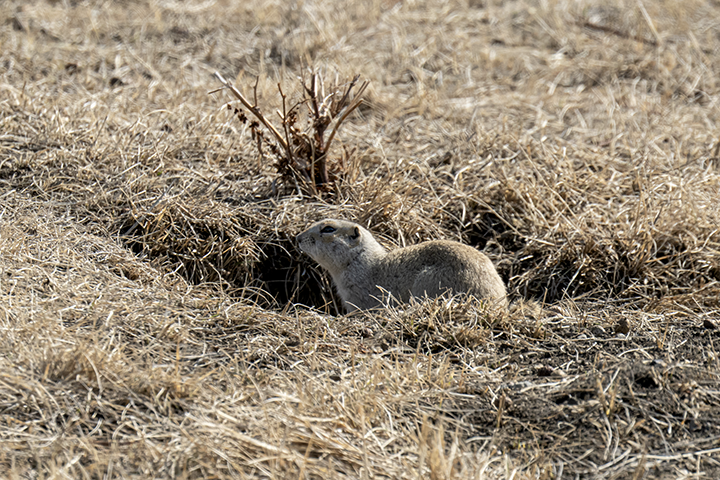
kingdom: Animalia
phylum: Chordata
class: Mammalia
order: Rodentia
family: Sciuridae
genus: Urocitellus
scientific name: Urocitellus richardsonii
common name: Richardson's ground squirrel
